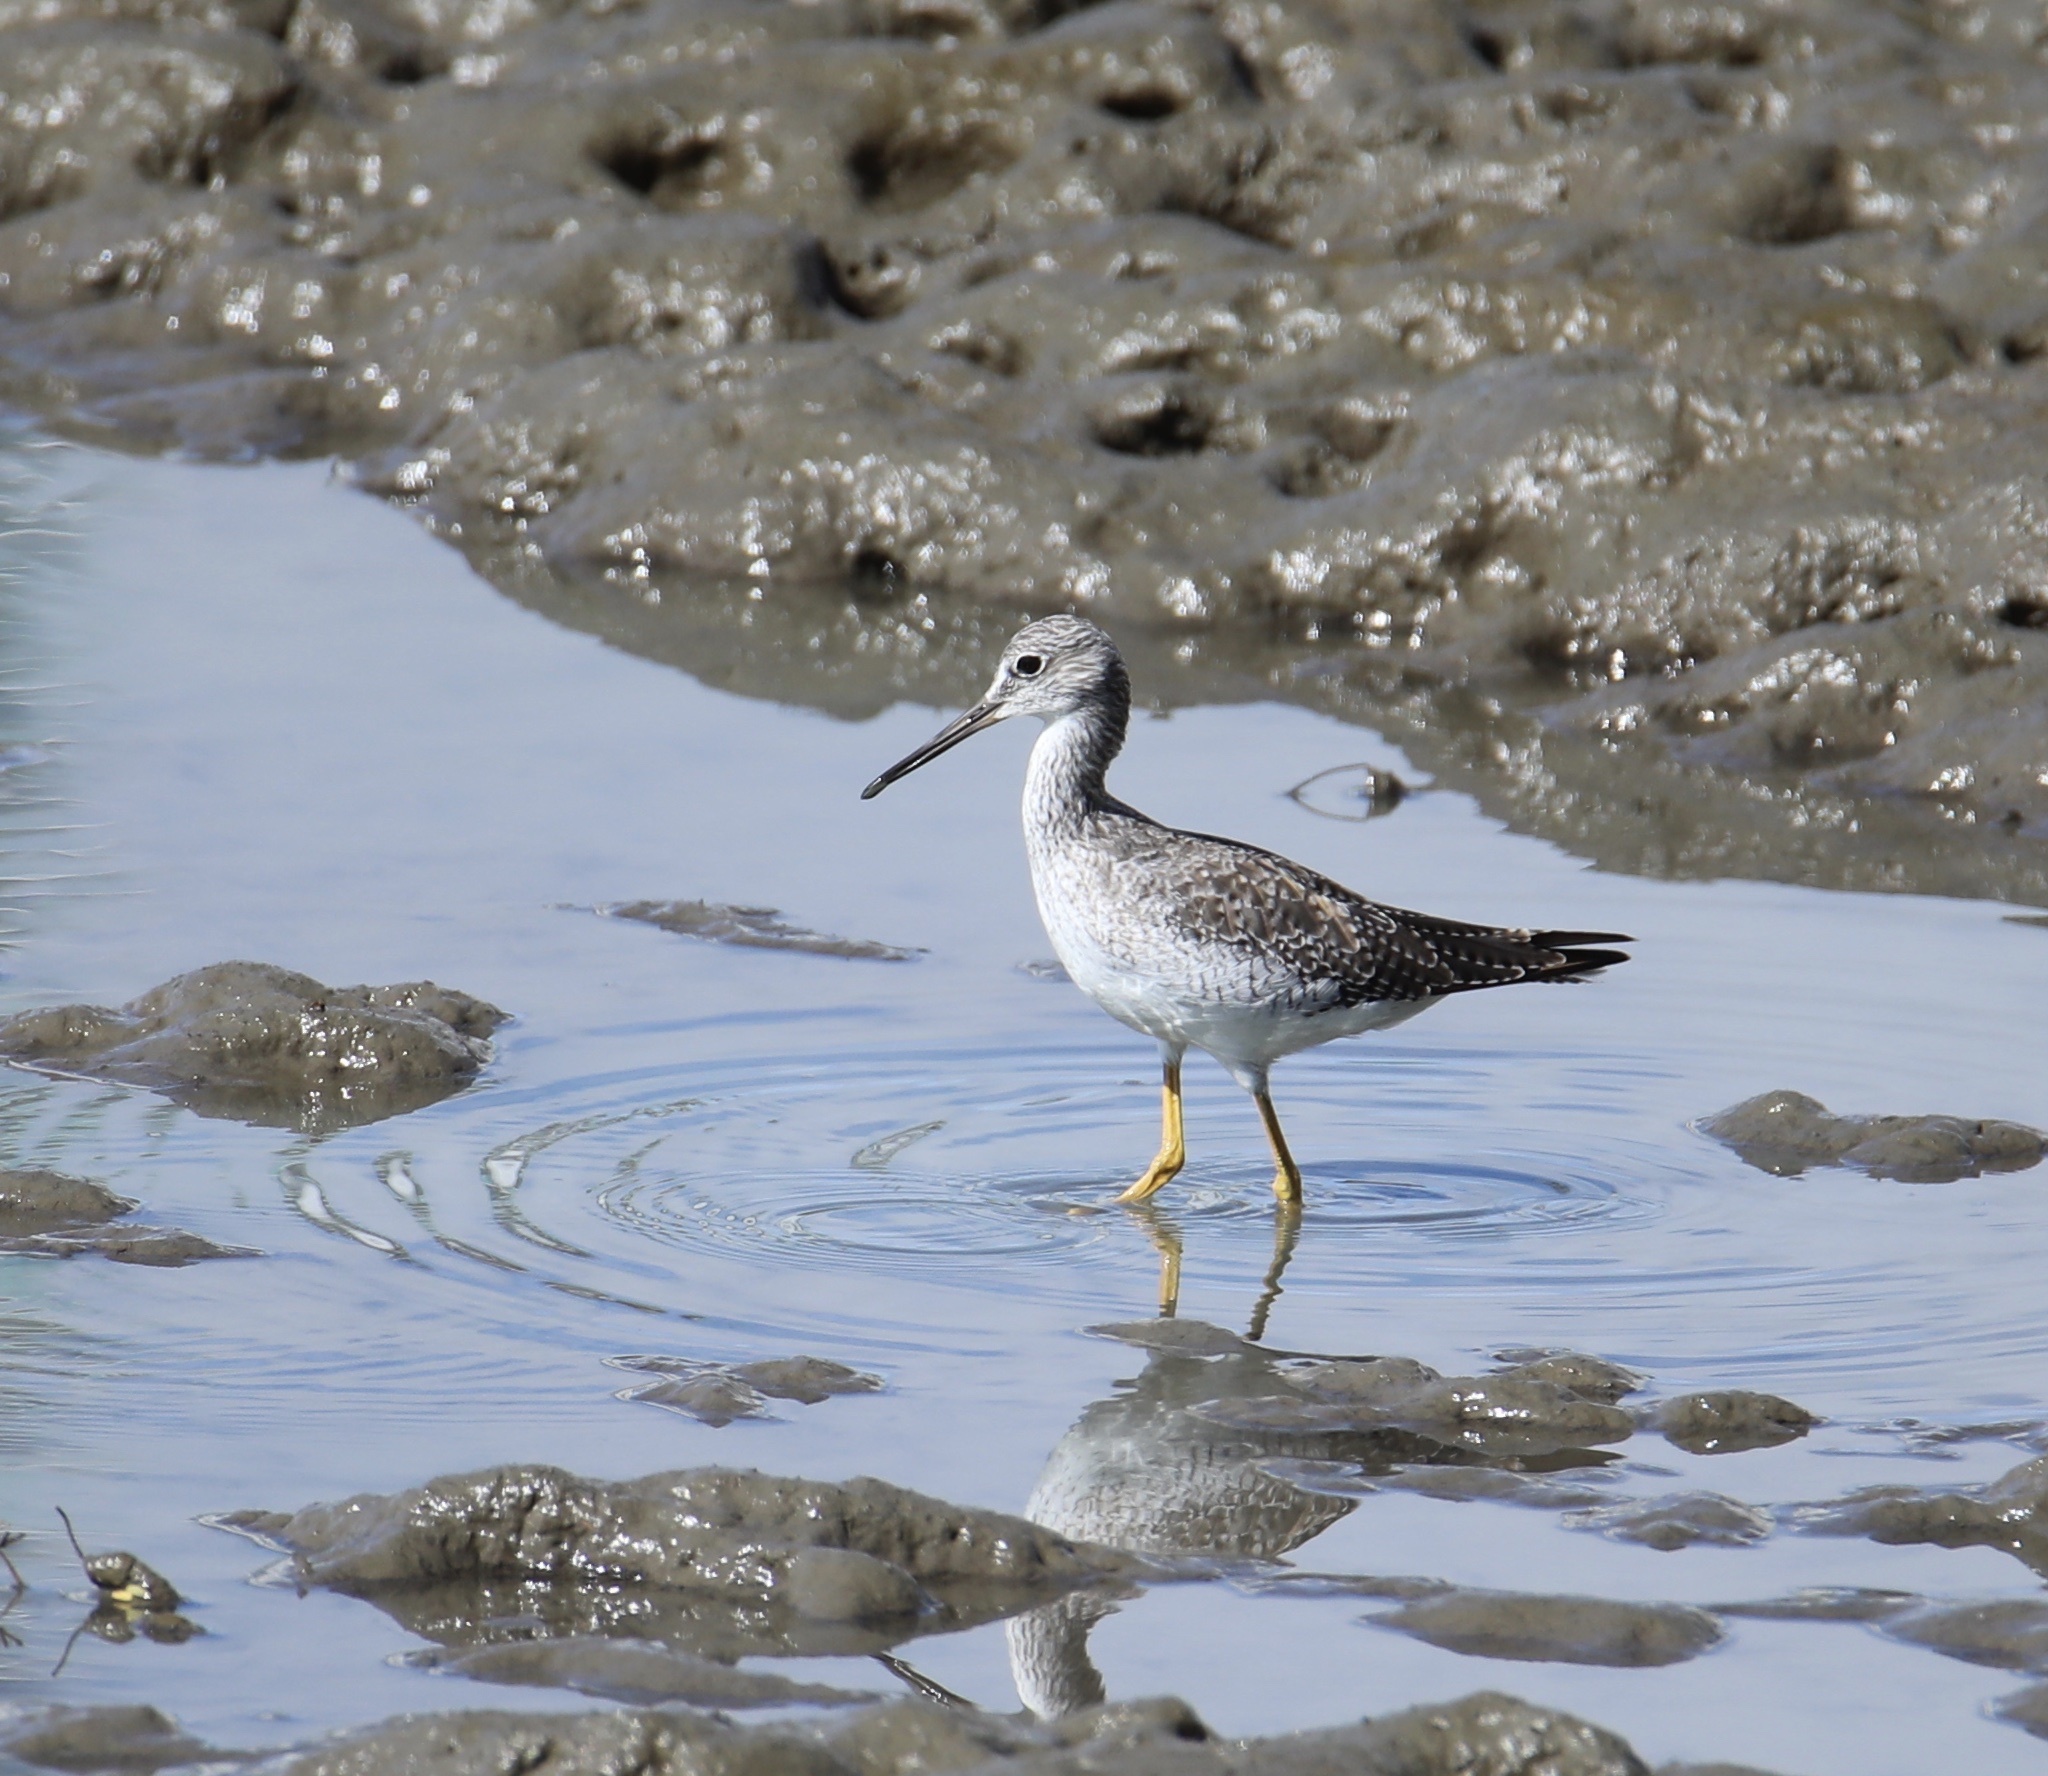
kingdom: Animalia
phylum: Chordata
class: Aves
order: Charadriiformes
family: Scolopacidae
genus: Tringa
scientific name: Tringa melanoleuca
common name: Greater yellowlegs
